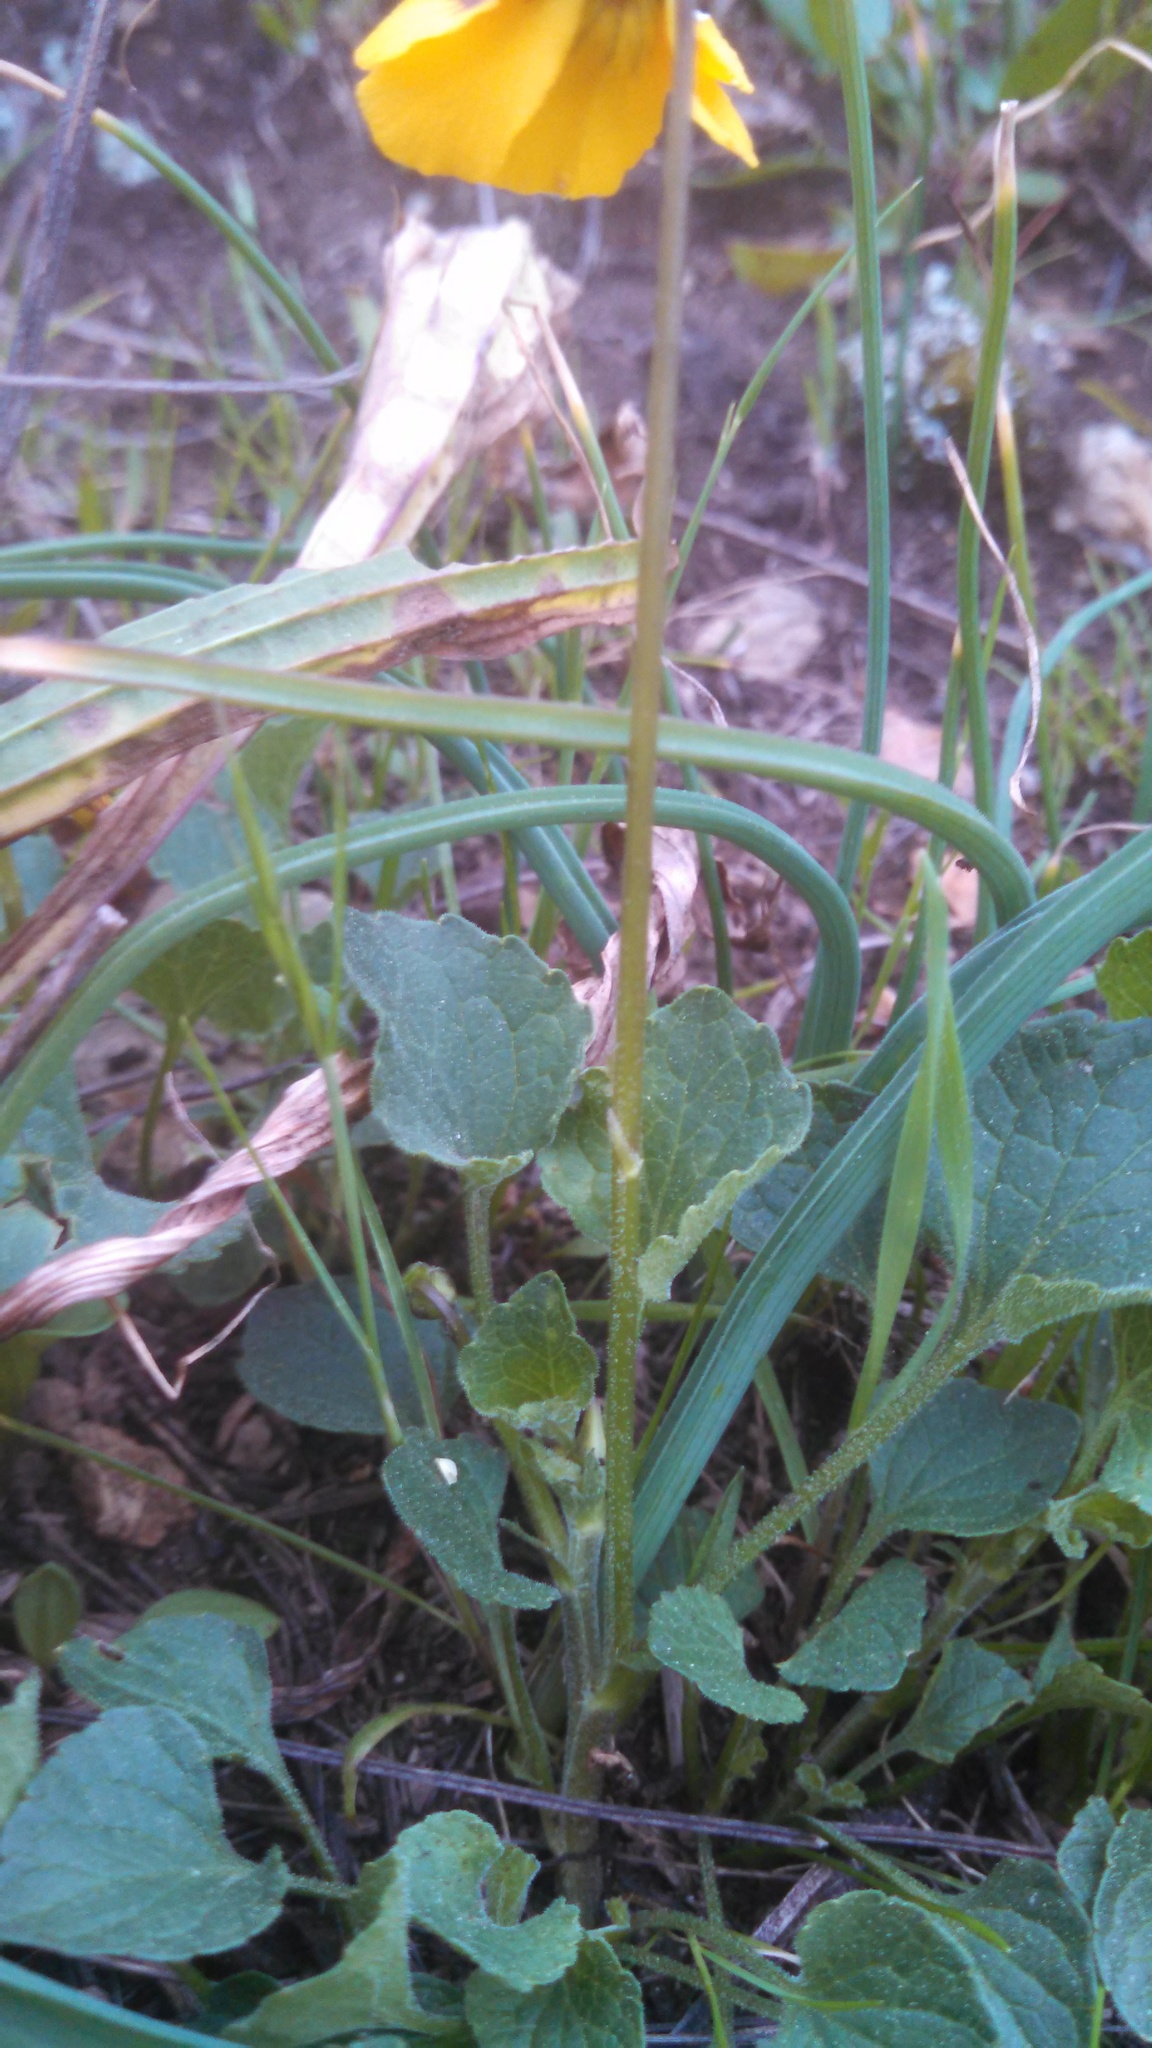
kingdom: Plantae
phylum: Tracheophyta
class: Magnoliopsida
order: Malpighiales
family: Violaceae
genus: Viola
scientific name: Viola pedunculata
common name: California golden violet
